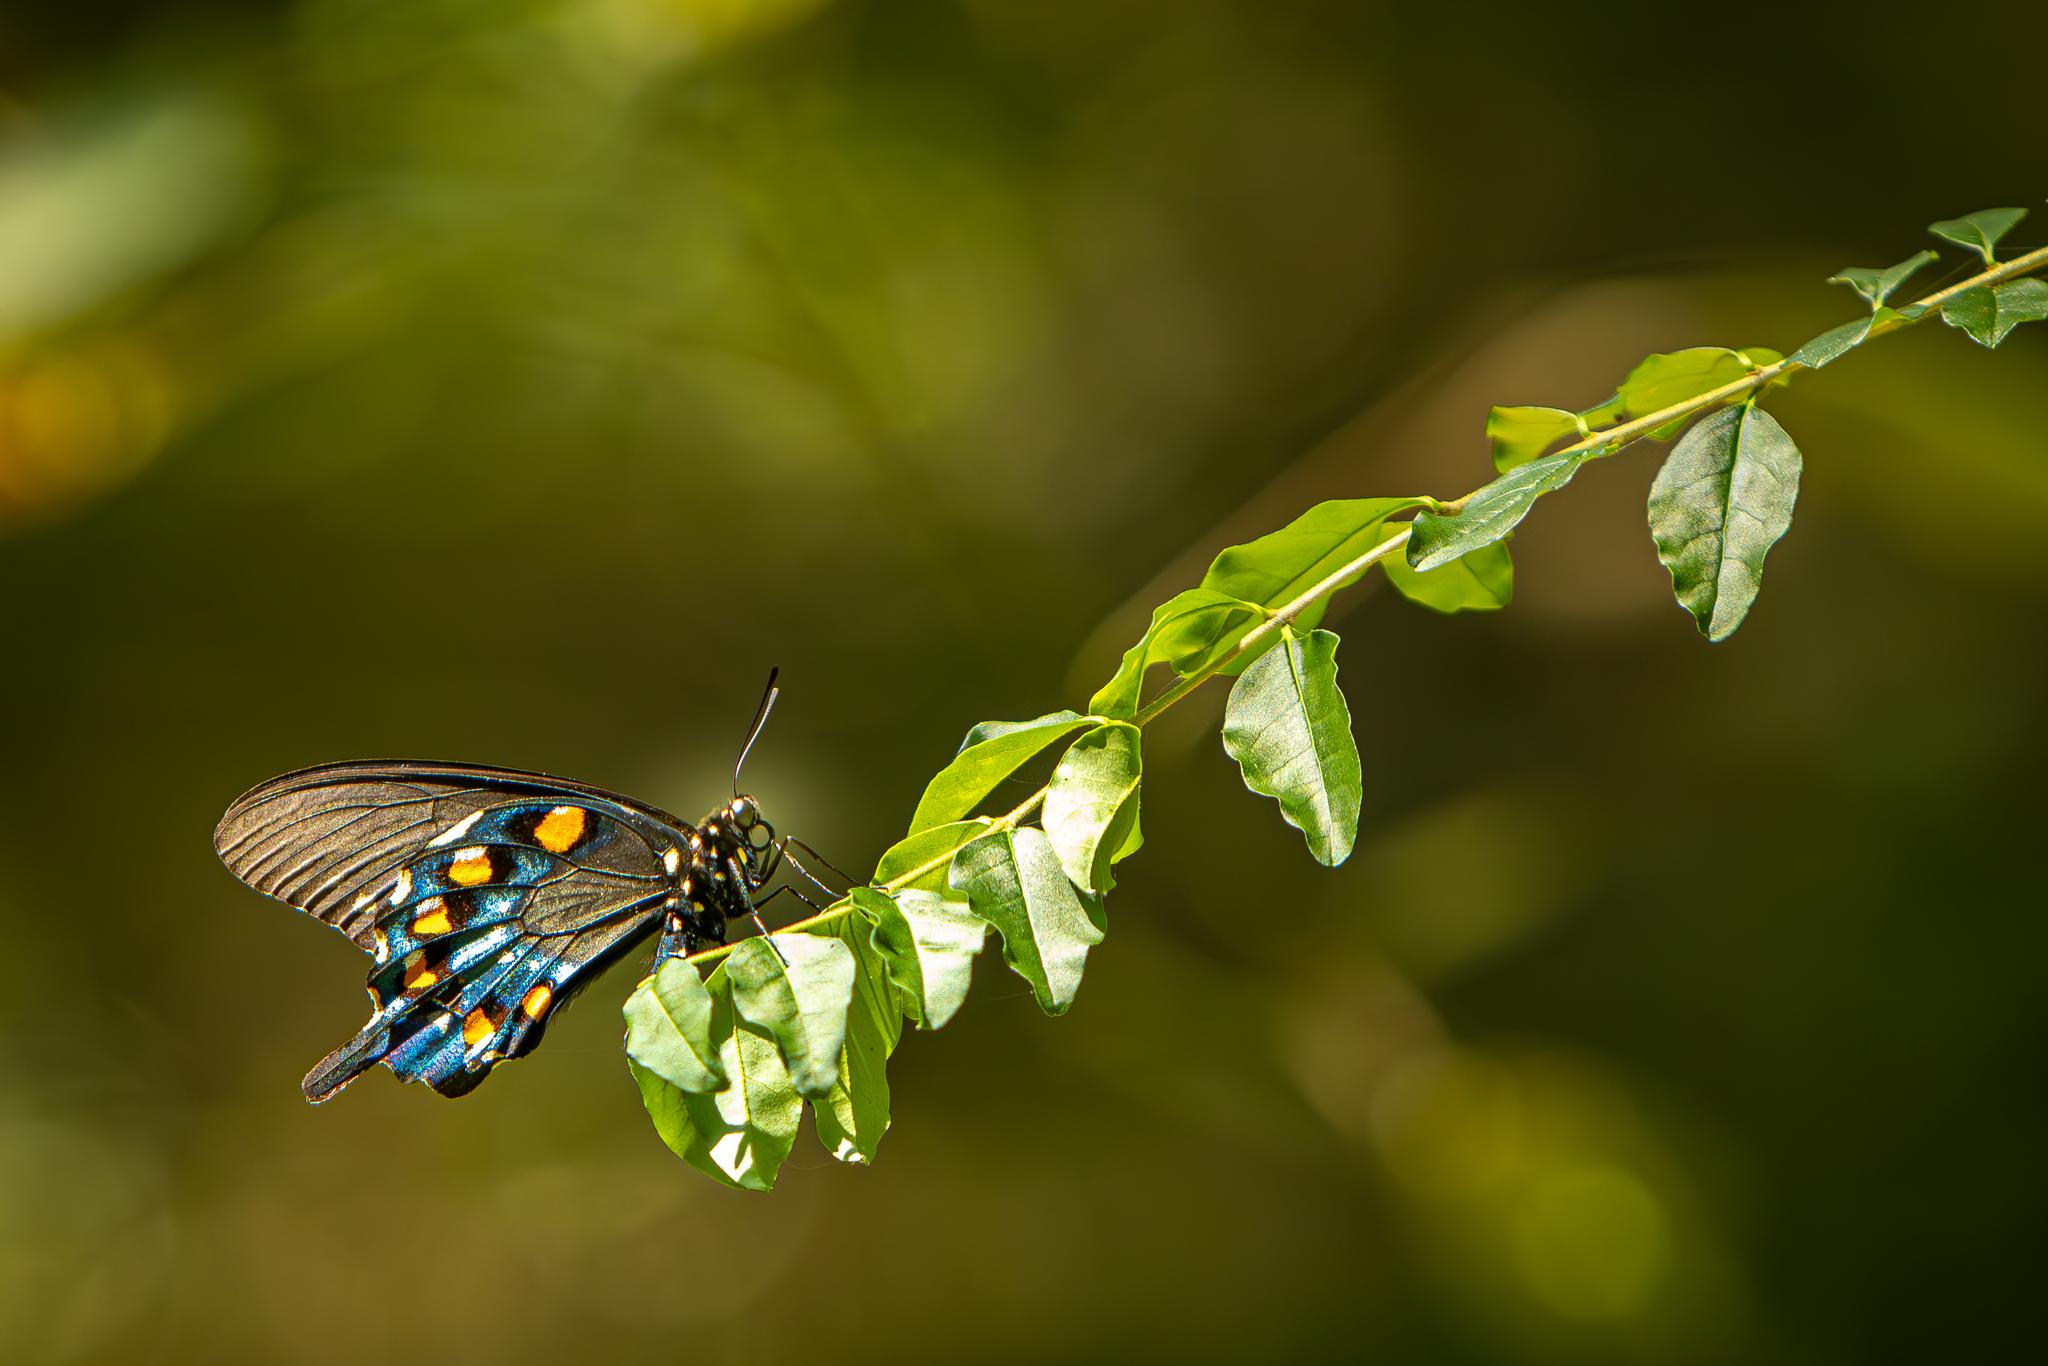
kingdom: Animalia
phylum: Arthropoda
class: Insecta
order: Lepidoptera
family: Papilionidae
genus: Battus
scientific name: Battus philenor
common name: Pipevine swallowtail
